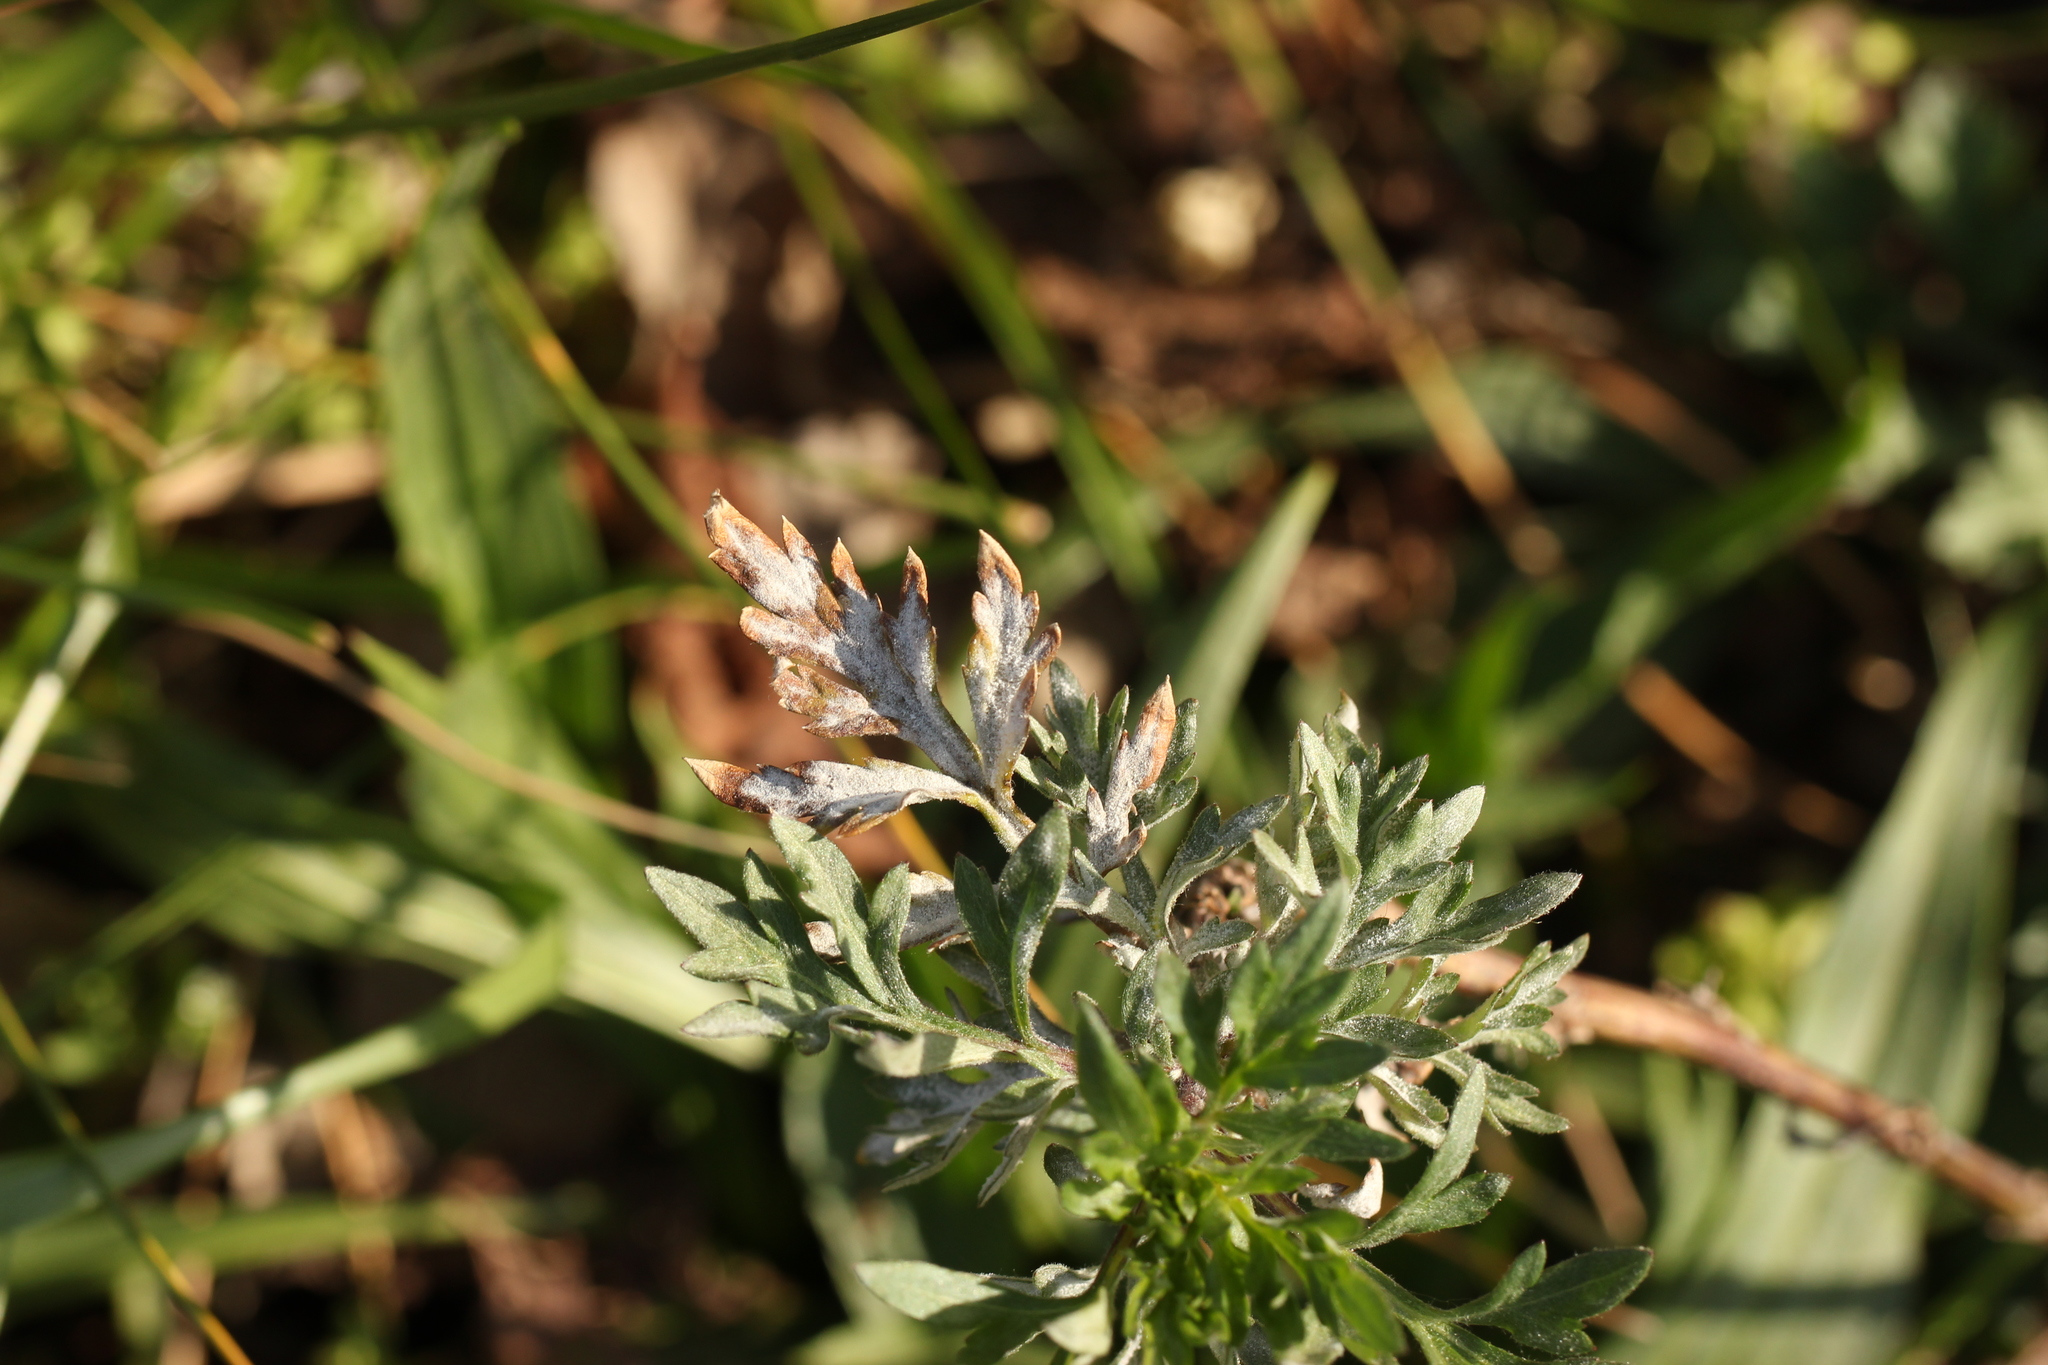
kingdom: Fungi
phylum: Ascomycota
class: Leotiomycetes
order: Helotiales
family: Erysiphaceae
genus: Golovinomyces
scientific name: Golovinomyces artemisiae
